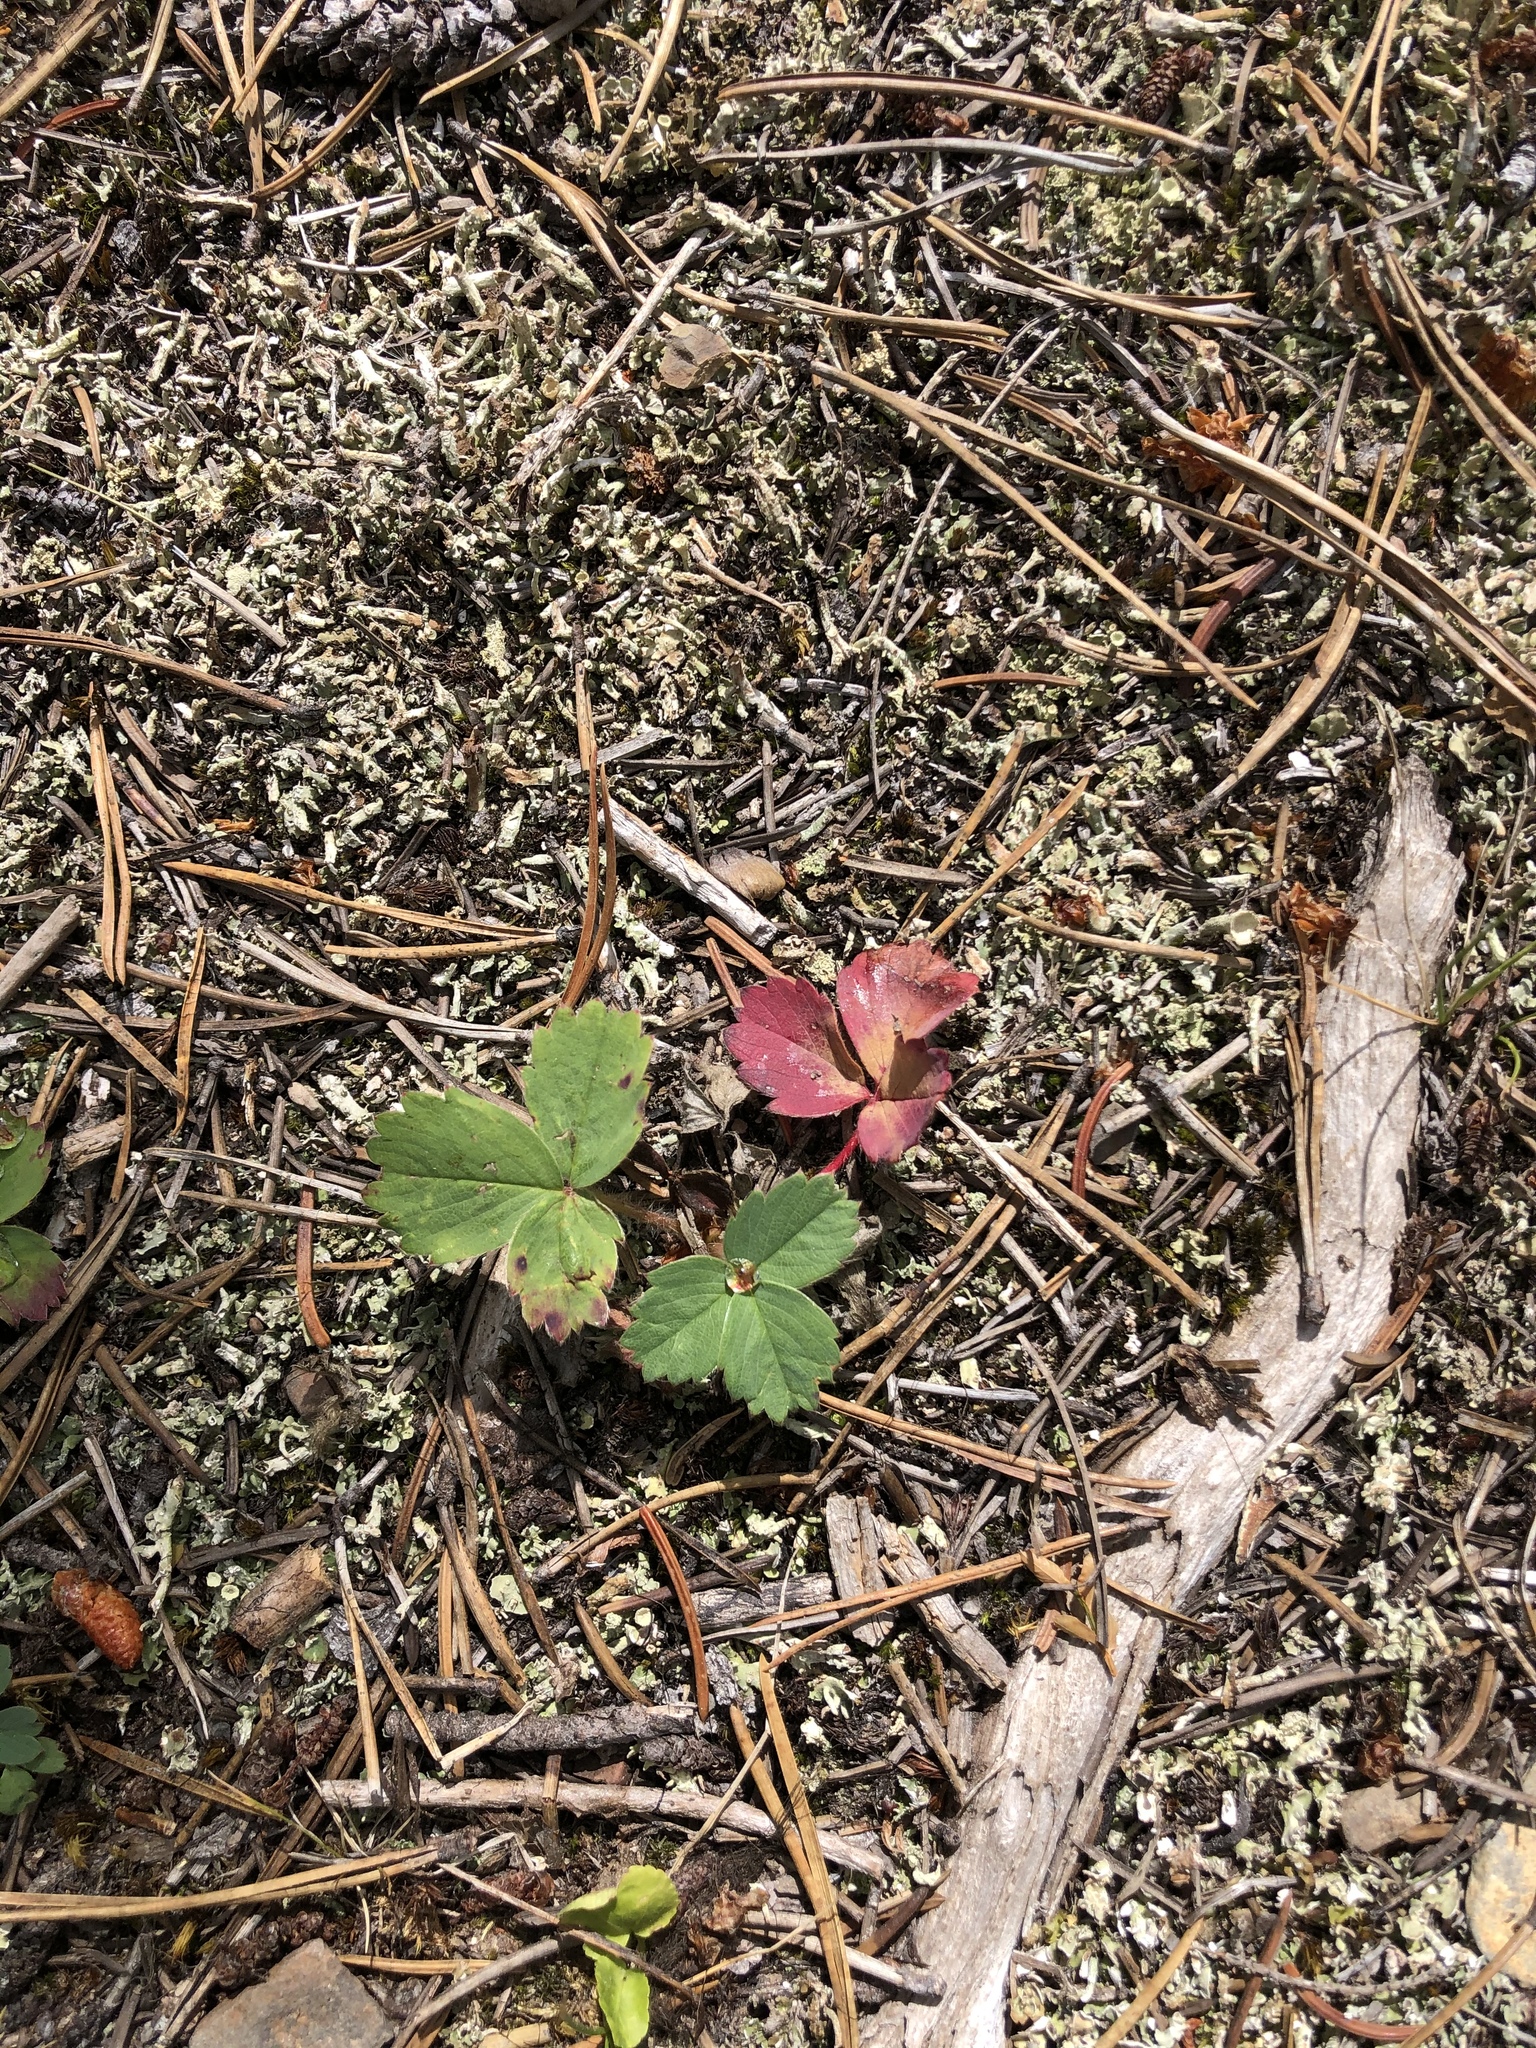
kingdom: Plantae
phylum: Tracheophyta
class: Magnoliopsida
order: Rosales
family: Rosaceae
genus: Fragaria
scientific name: Fragaria virginiana
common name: Thickleaved wild strawberry
